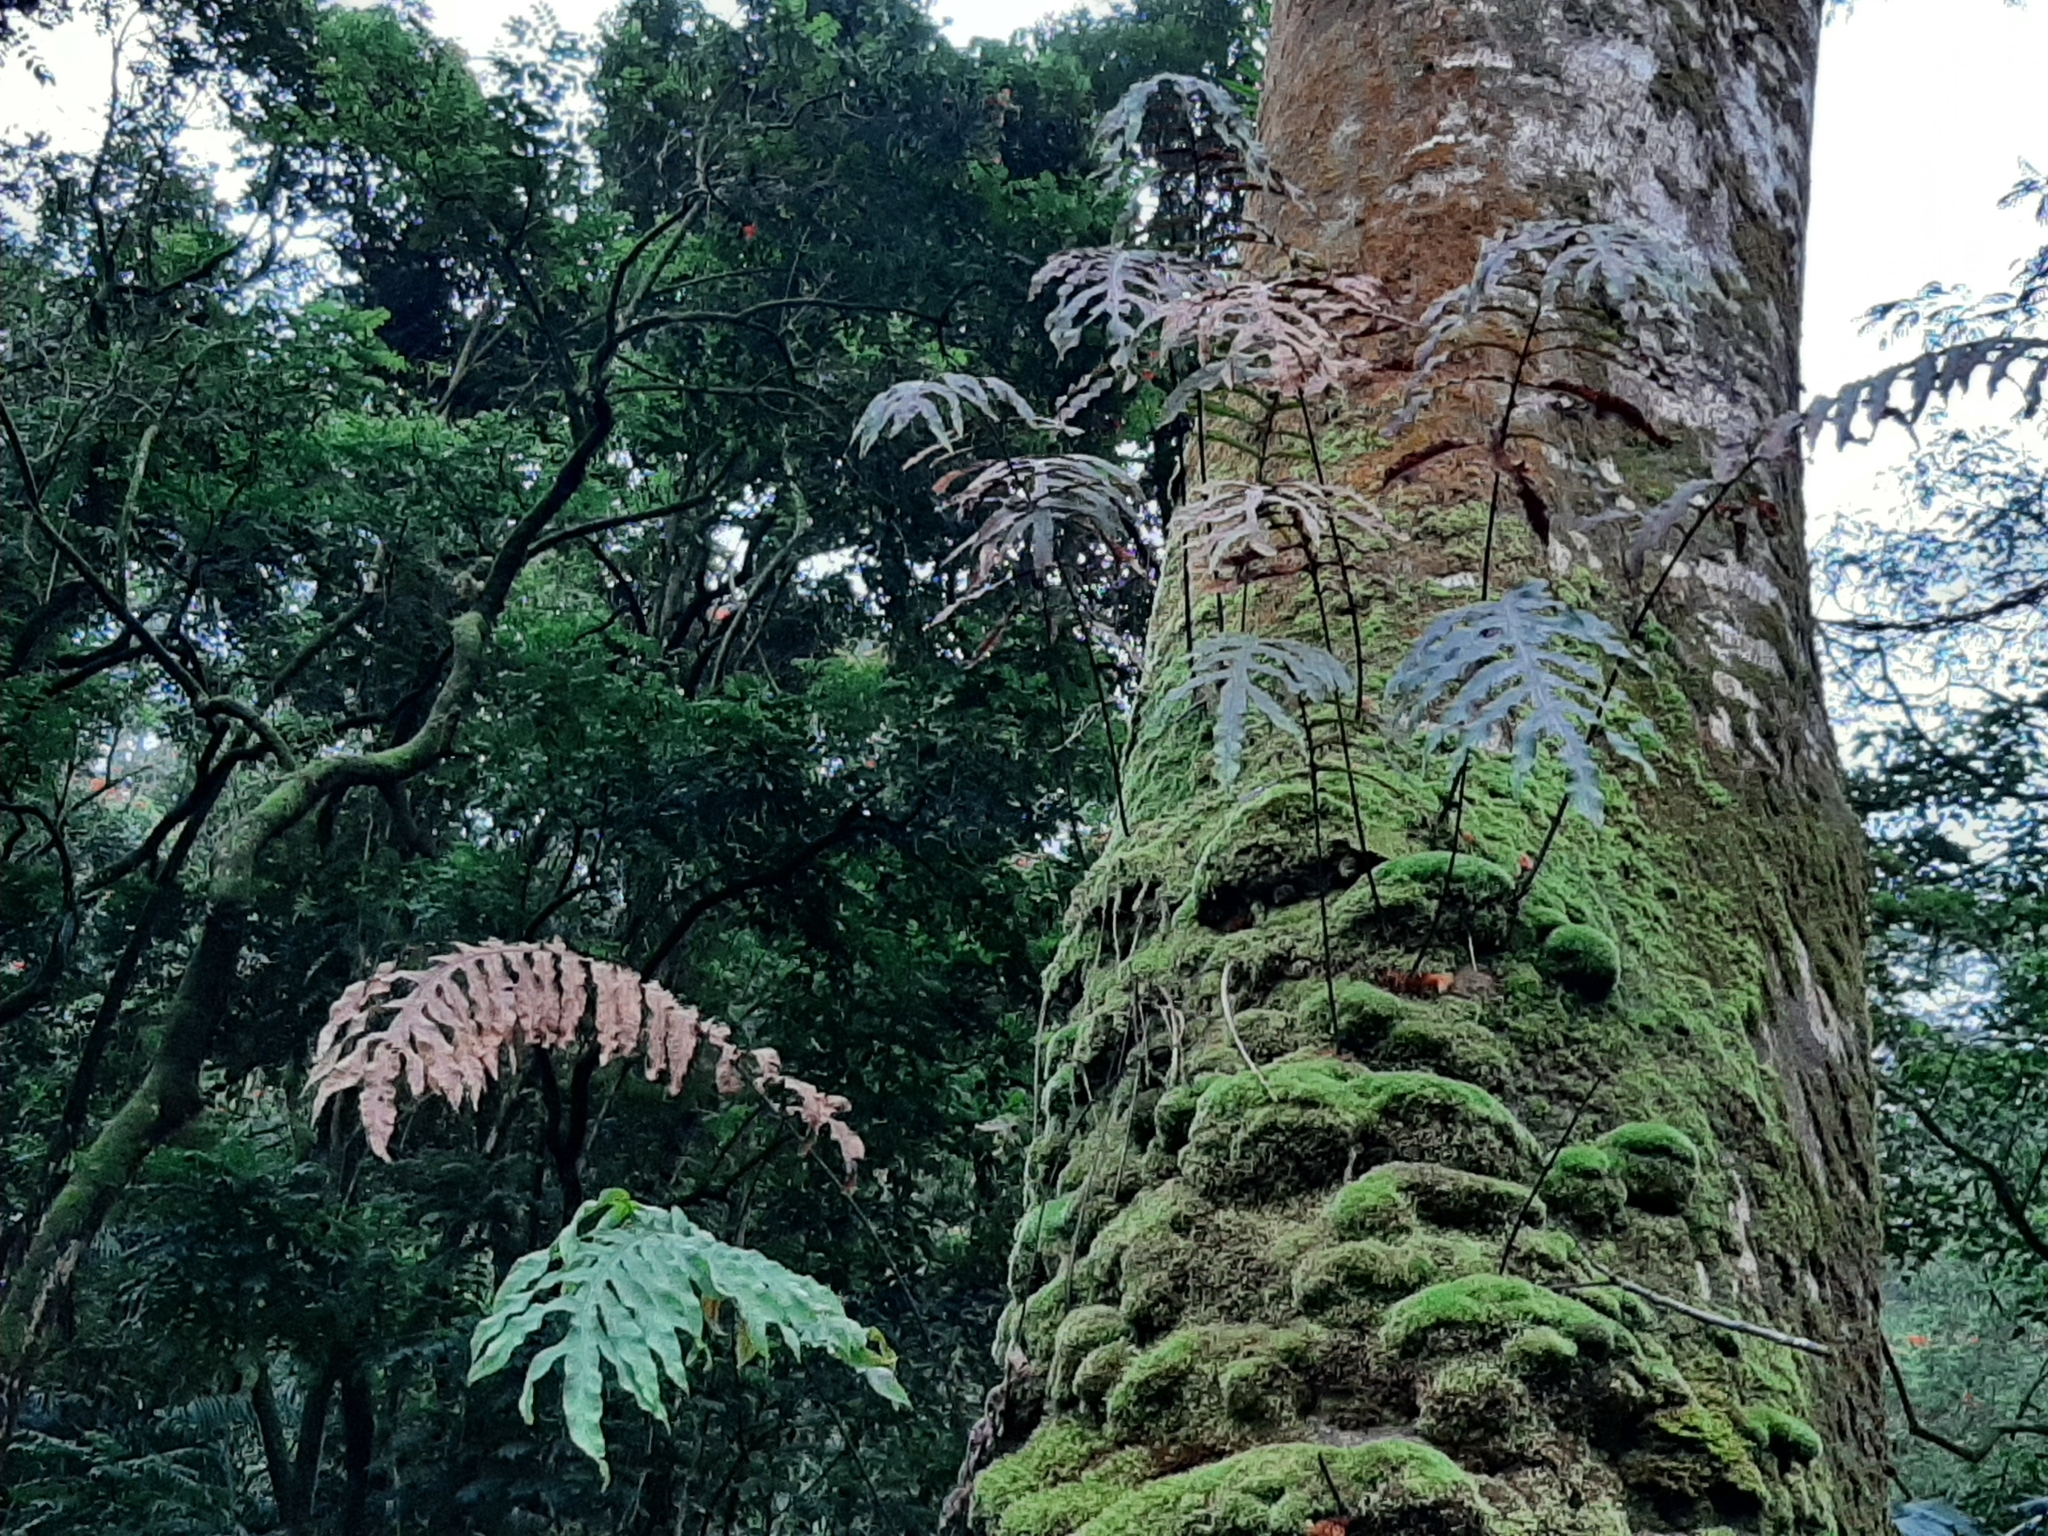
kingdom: Plantae
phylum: Tracheophyta
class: Polypodiopsida
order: Polypodiales
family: Polypodiaceae
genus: Phlebodium
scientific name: Phlebodium aureum
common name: Gold-foot fern
